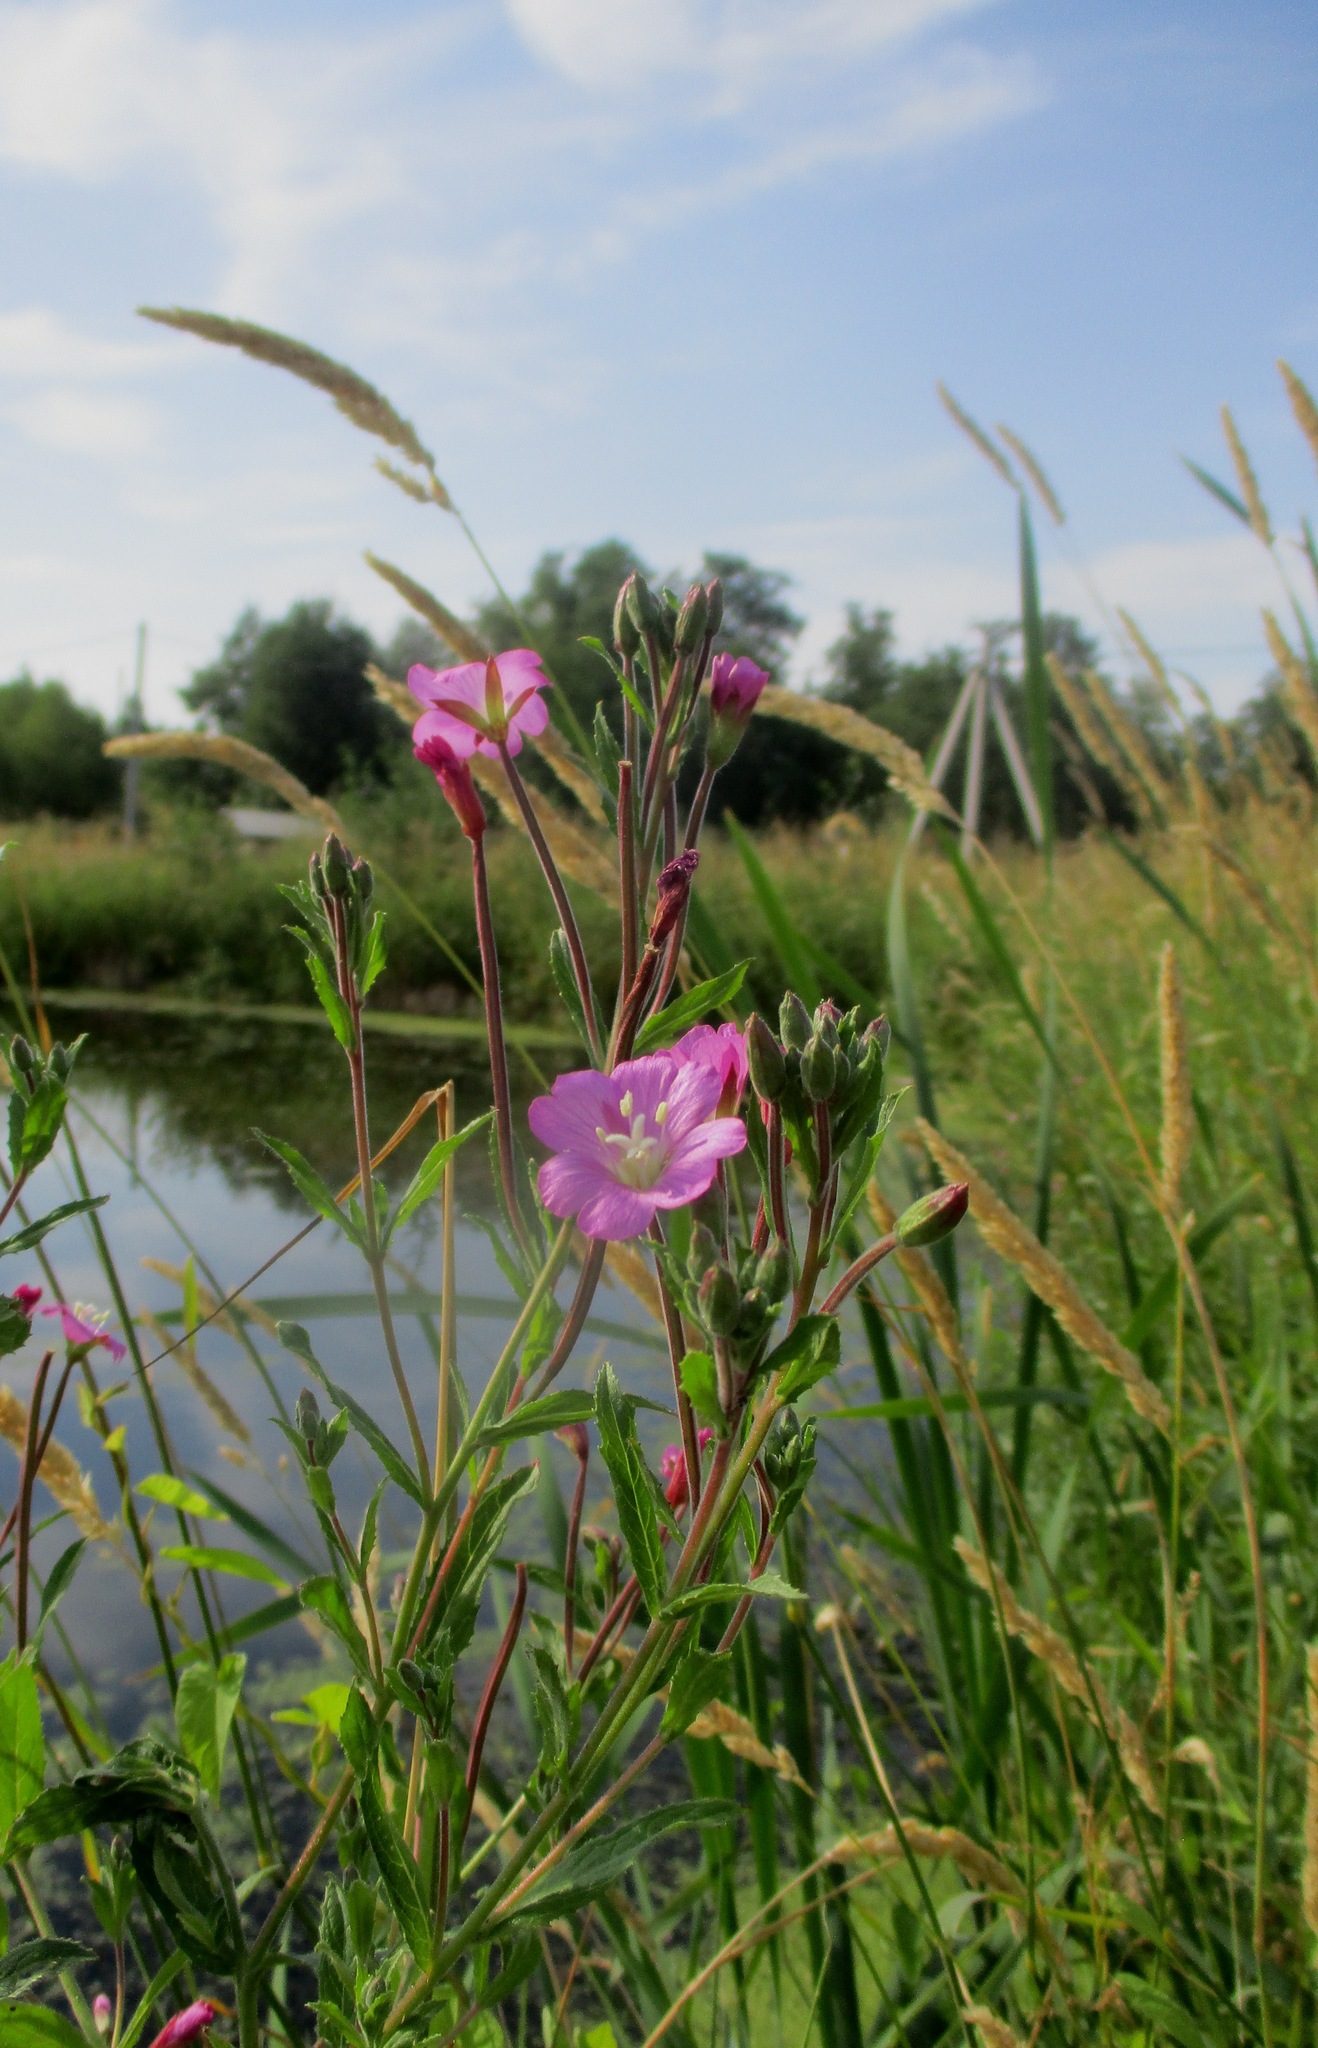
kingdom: Plantae
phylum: Tracheophyta
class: Magnoliopsida
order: Myrtales
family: Onagraceae
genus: Epilobium
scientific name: Epilobium hirsutum
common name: Great willowherb
